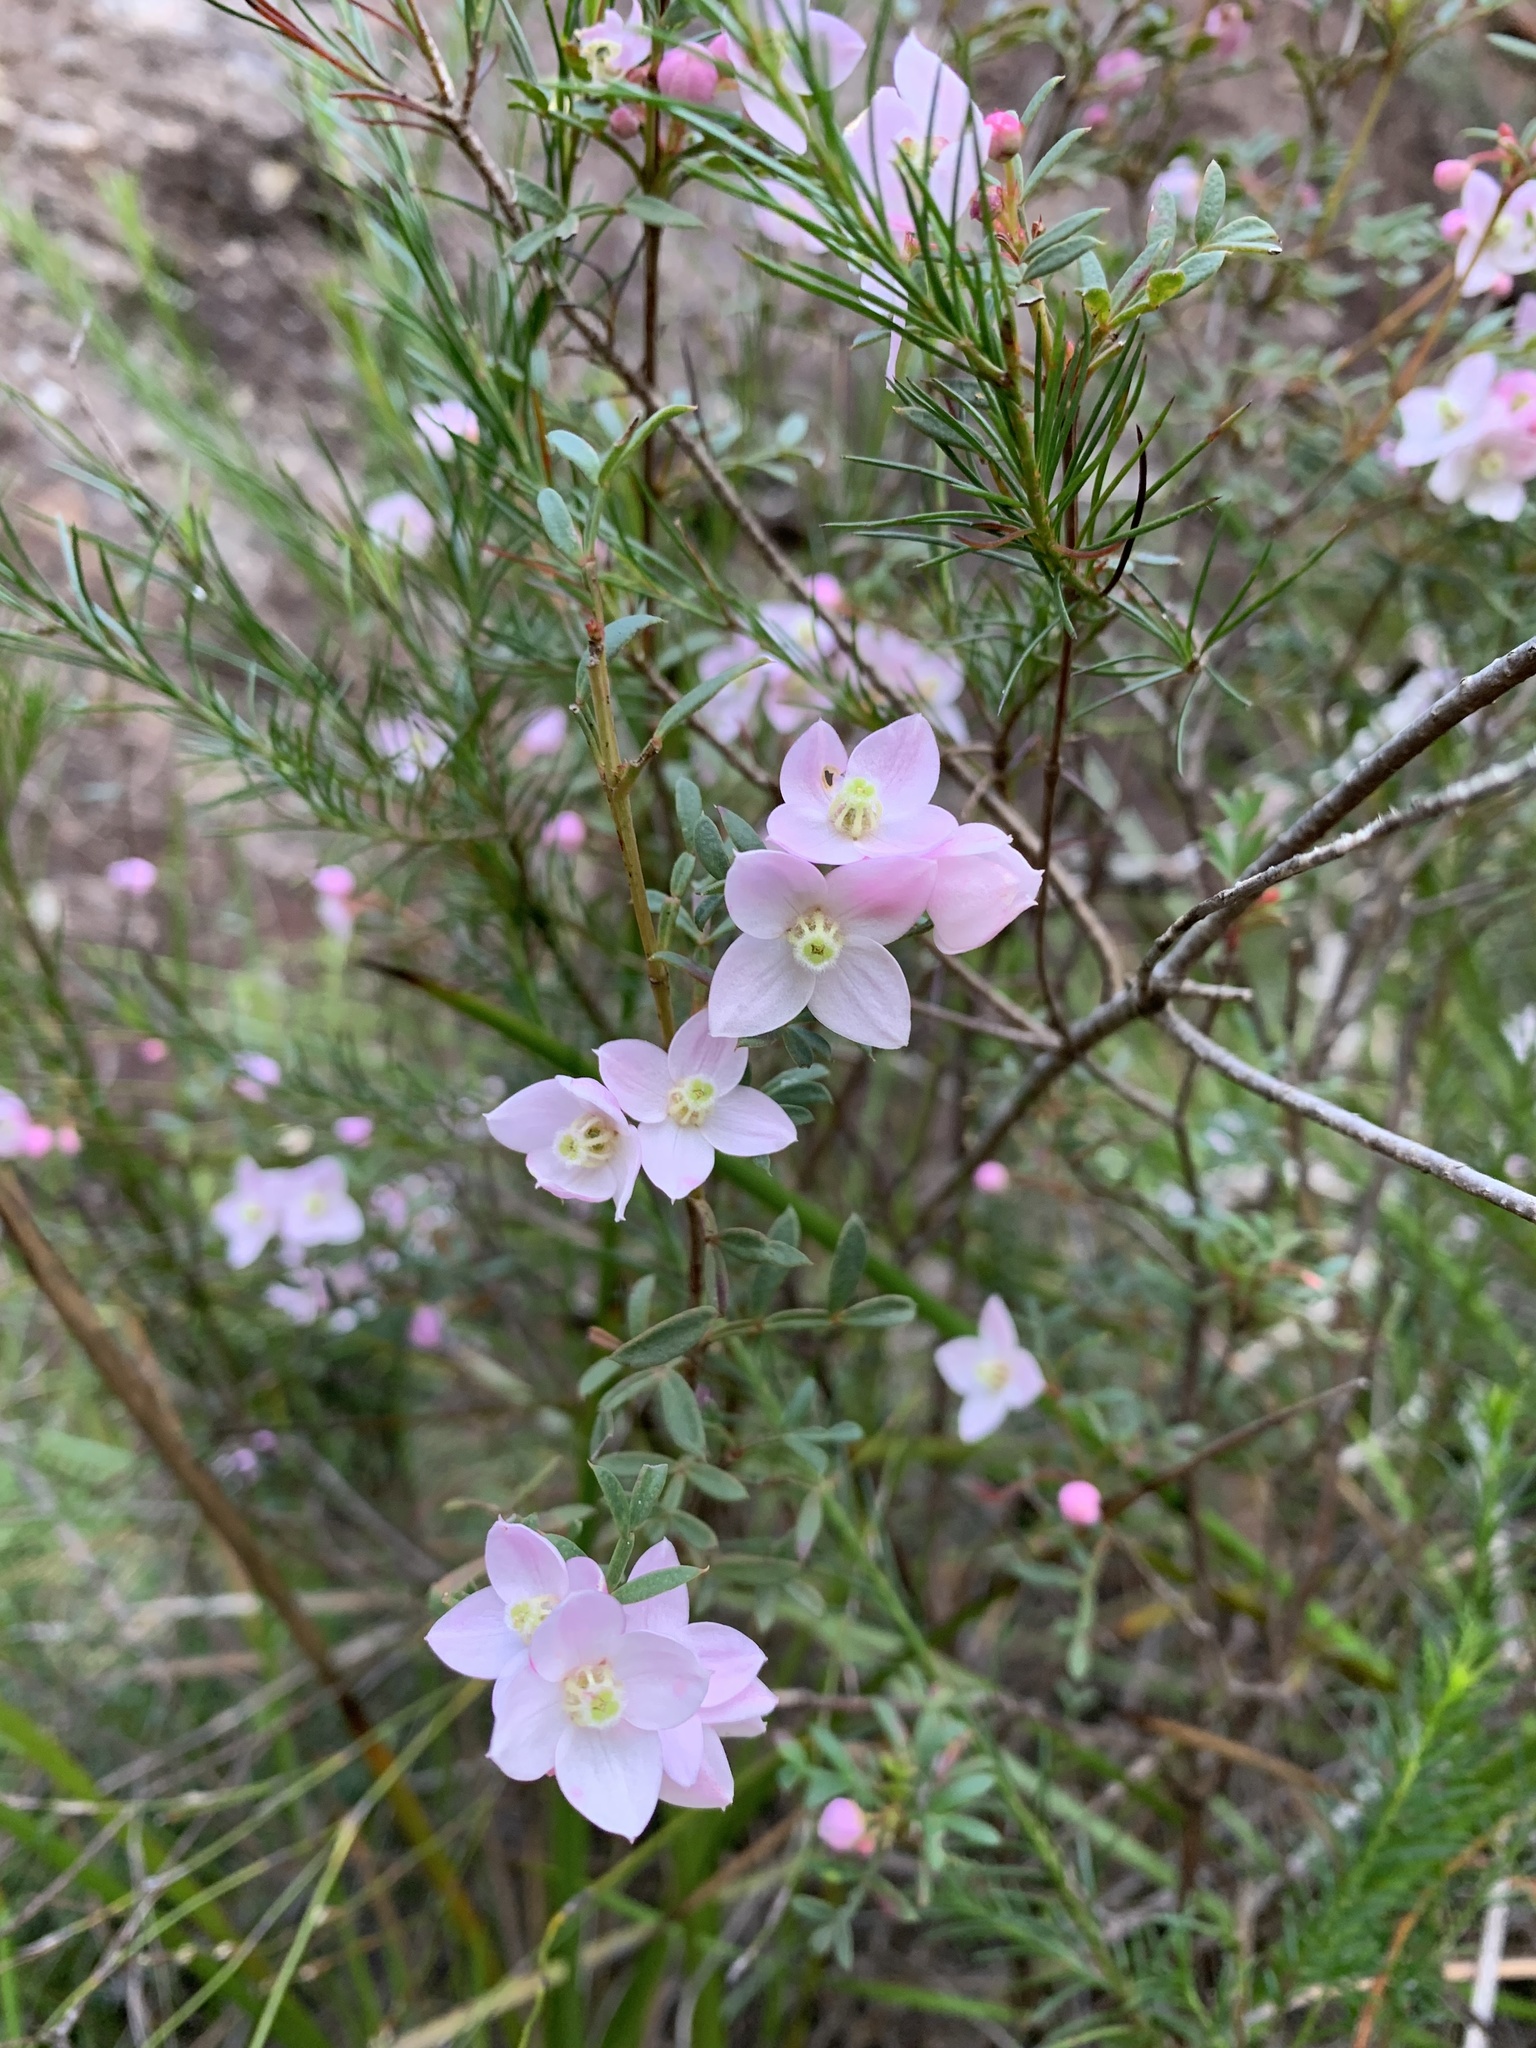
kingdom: Plantae
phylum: Tracheophyta
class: Magnoliopsida
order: Sapindales
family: Rutaceae
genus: Boronia
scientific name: Boronia floribunda
